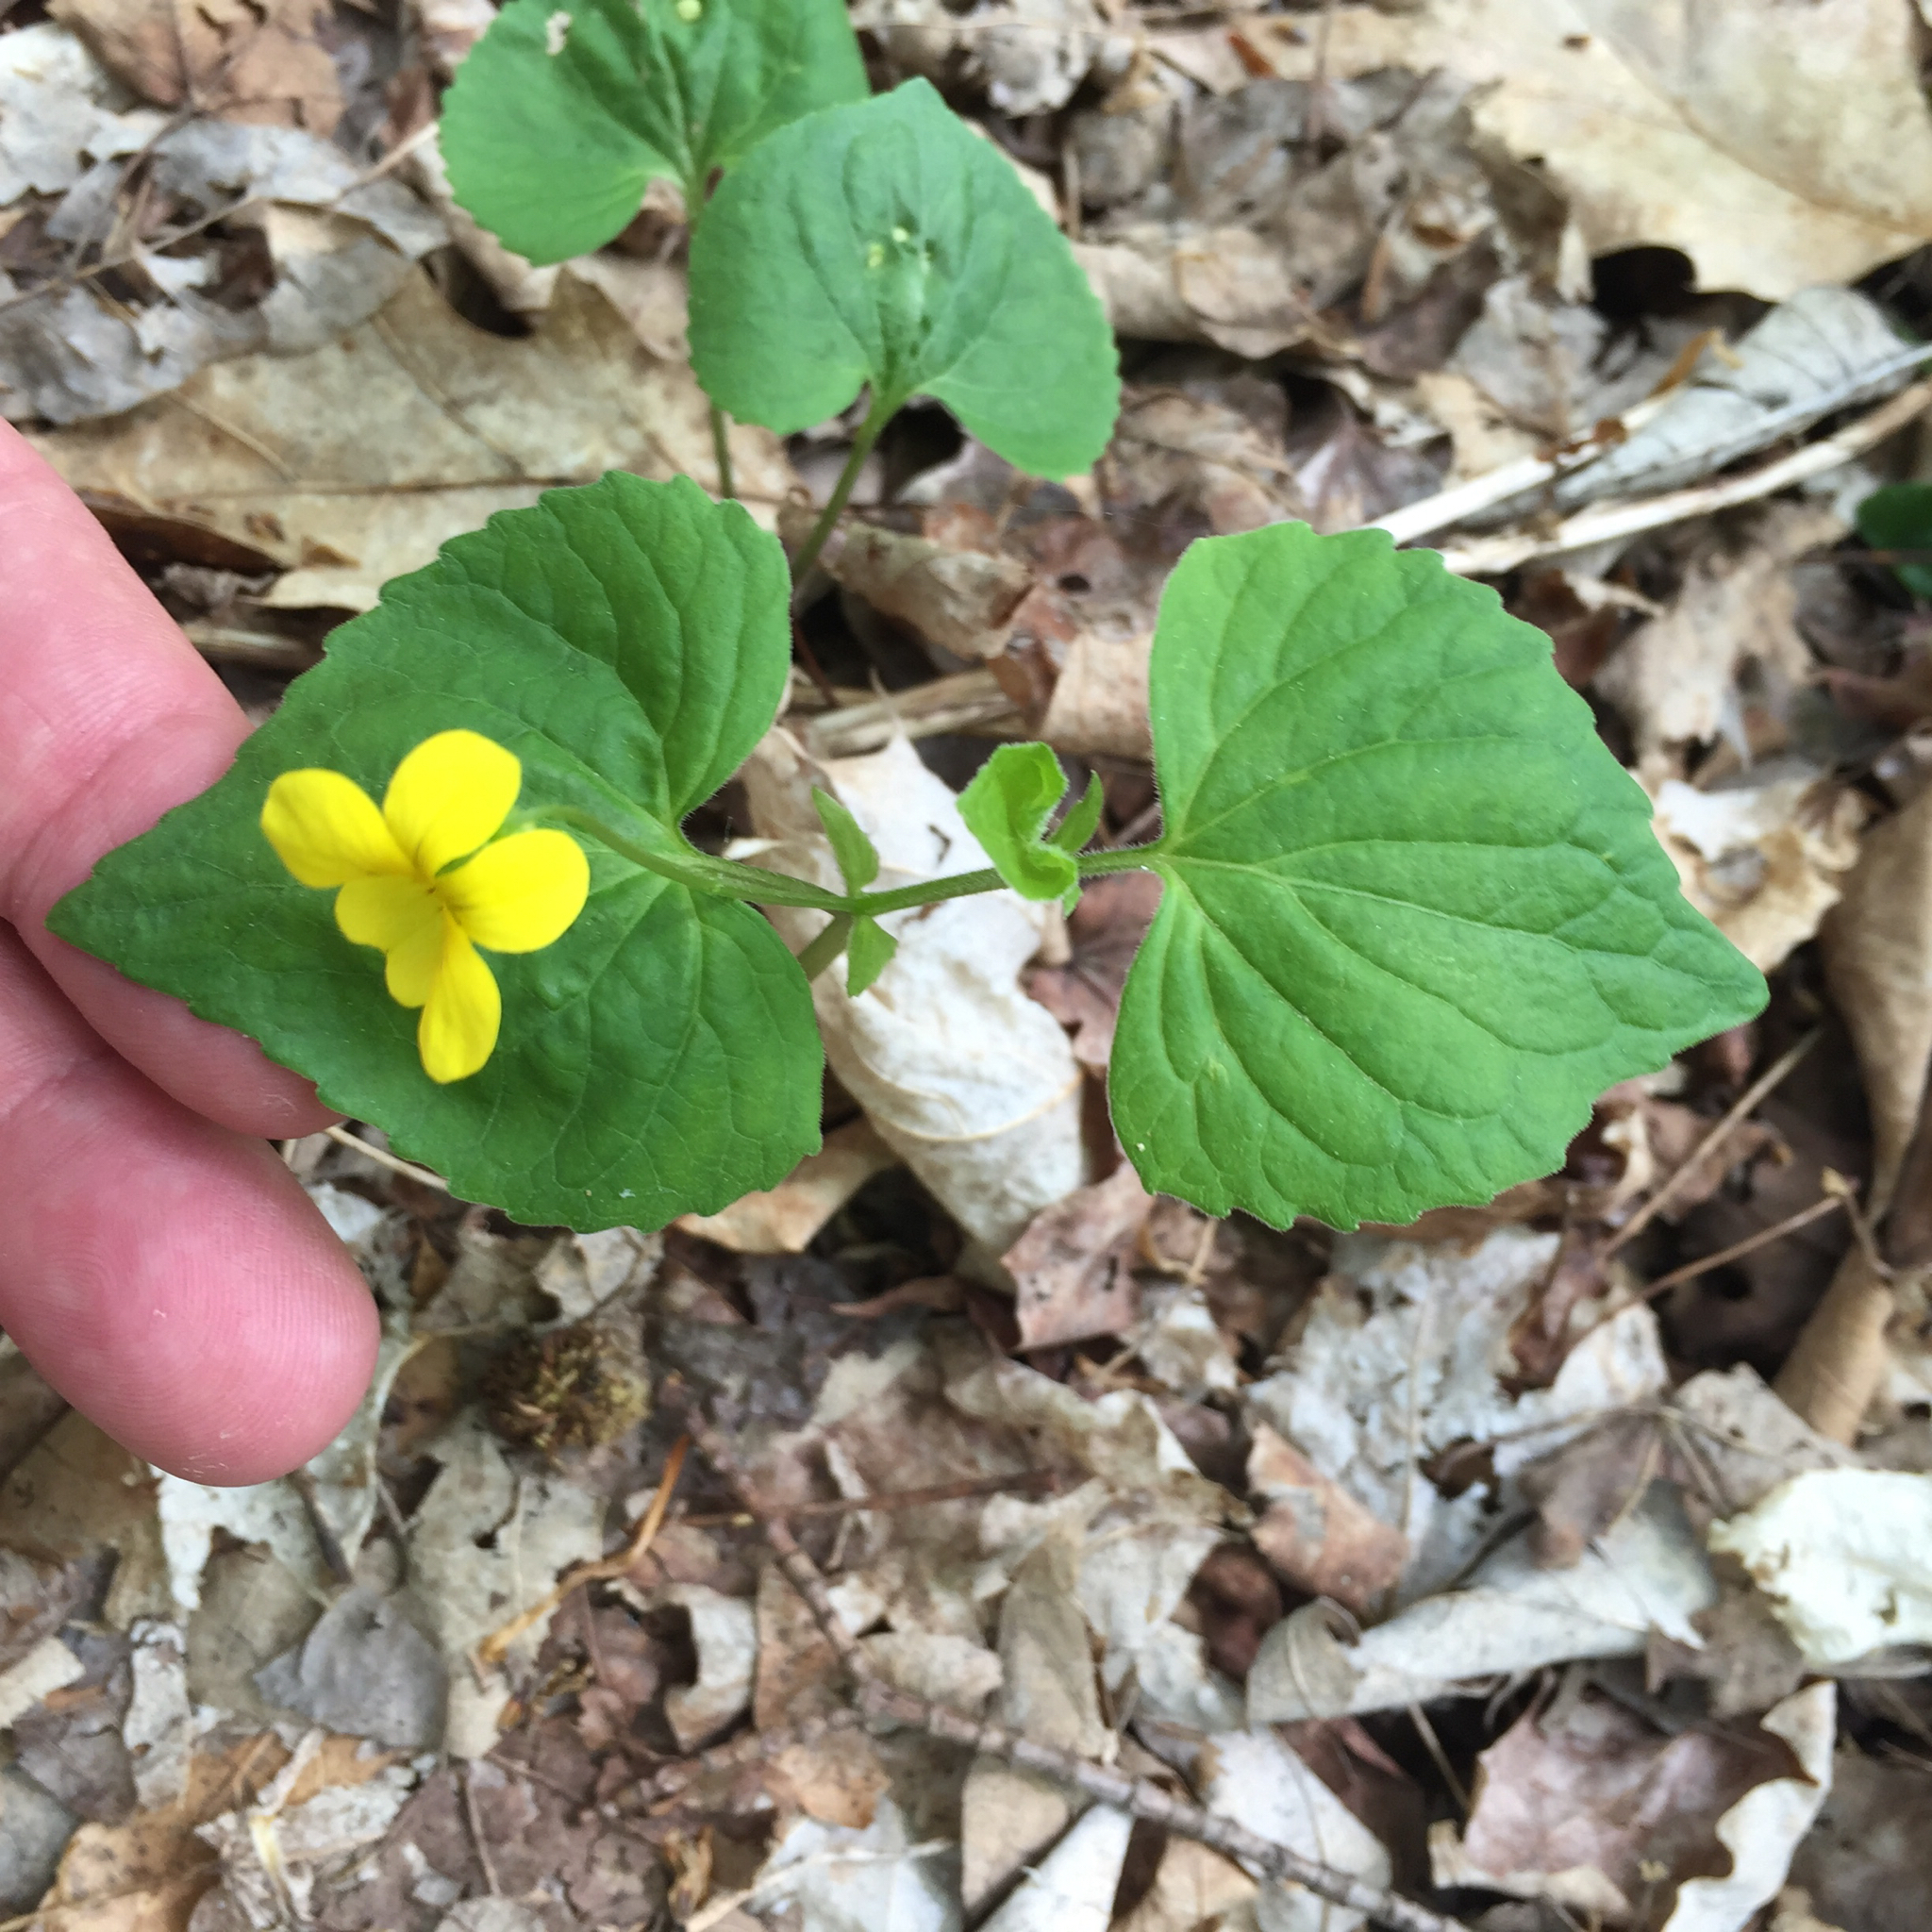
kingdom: Plantae
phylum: Tracheophyta
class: Magnoliopsida
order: Malpighiales
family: Violaceae
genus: Viola
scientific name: Viola eriocarpa
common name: Smooth yellow violet
